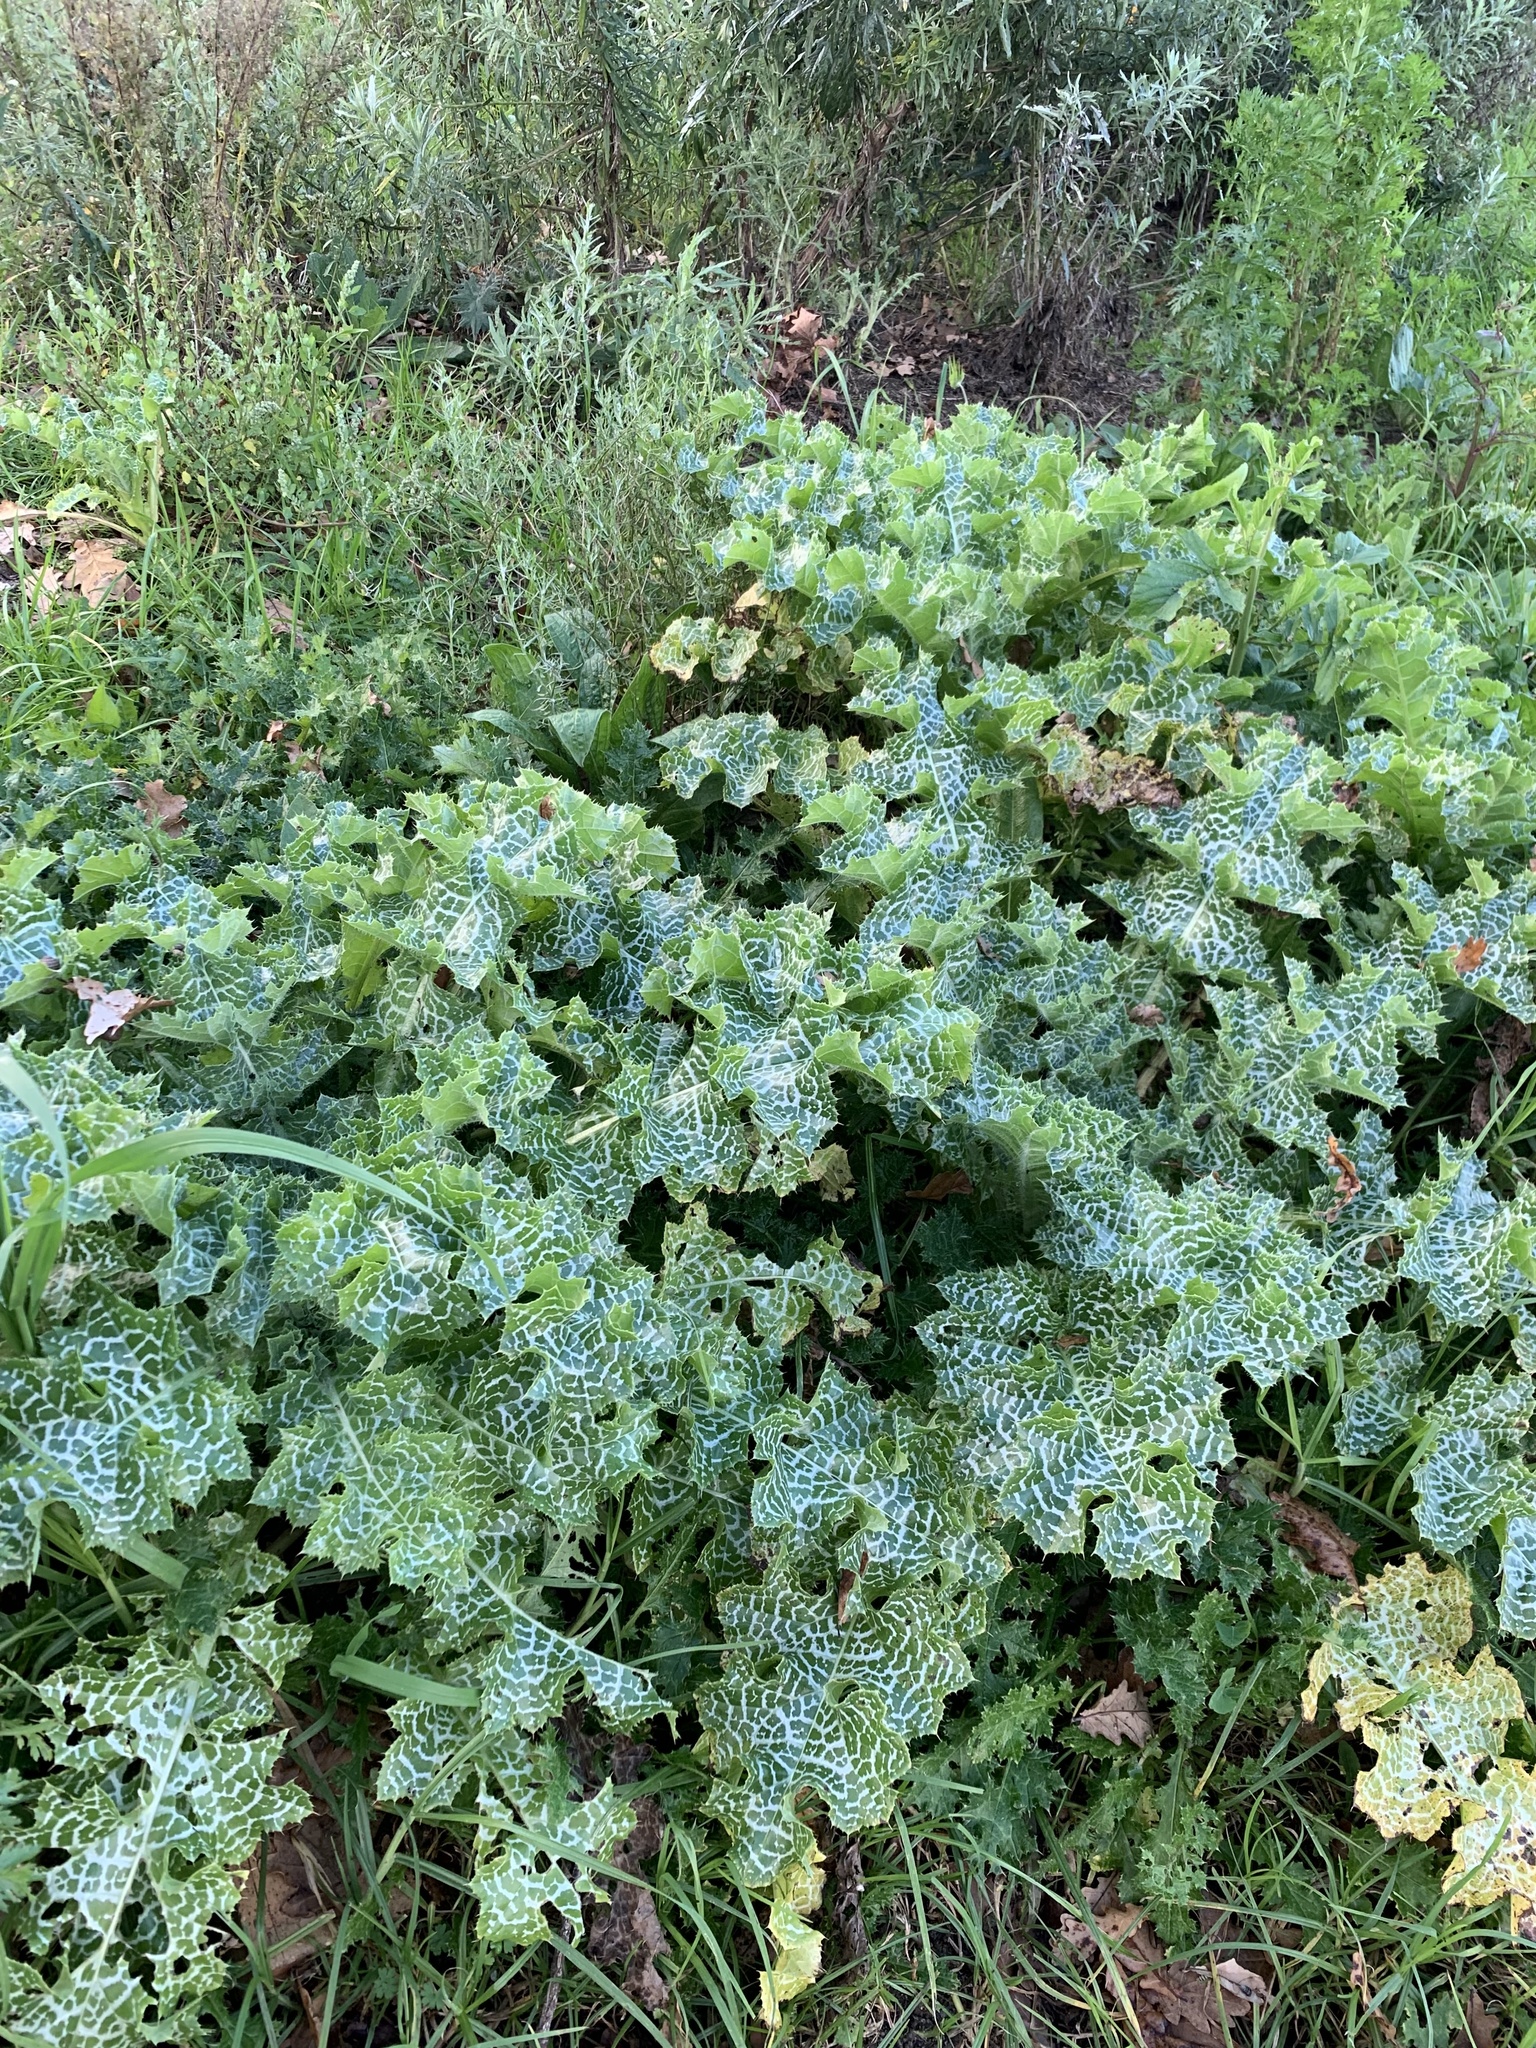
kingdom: Plantae
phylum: Tracheophyta
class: Magnoliopsida
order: Asterales
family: Asteraceae
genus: Silybum
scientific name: Silybum marianum
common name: Milk thistle
